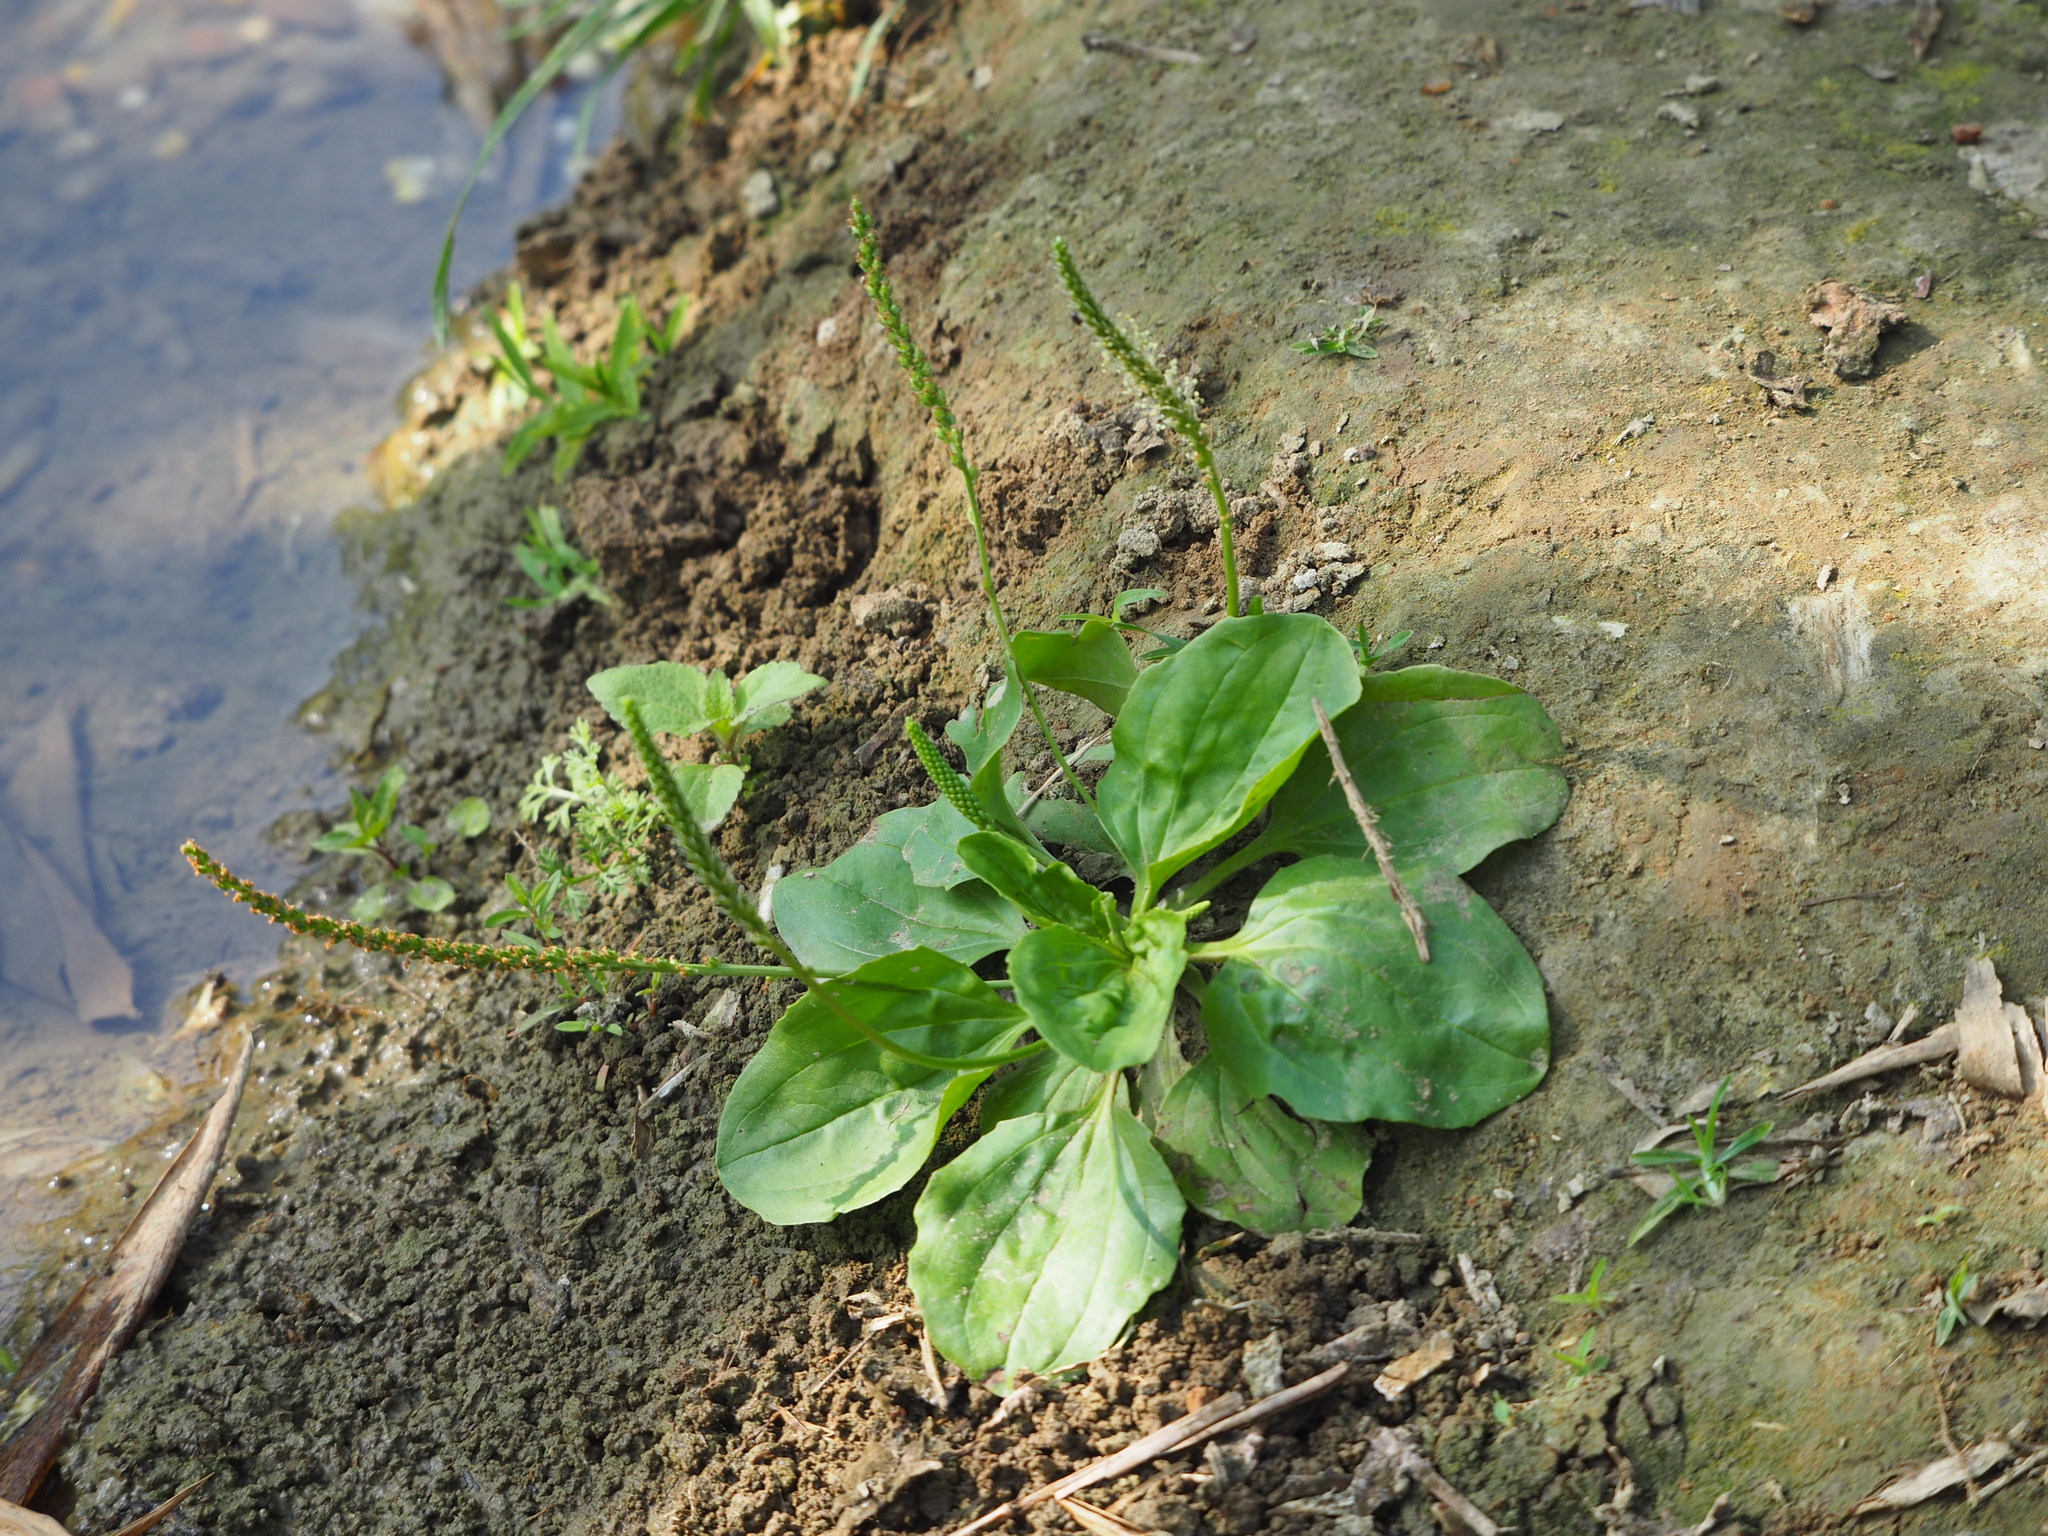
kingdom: Plantae
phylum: Tracheophyta
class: Magnoliopsida
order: Lamiales
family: Plantaginaceae
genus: Plantago
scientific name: Plantago asiatica
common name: Psyllium
